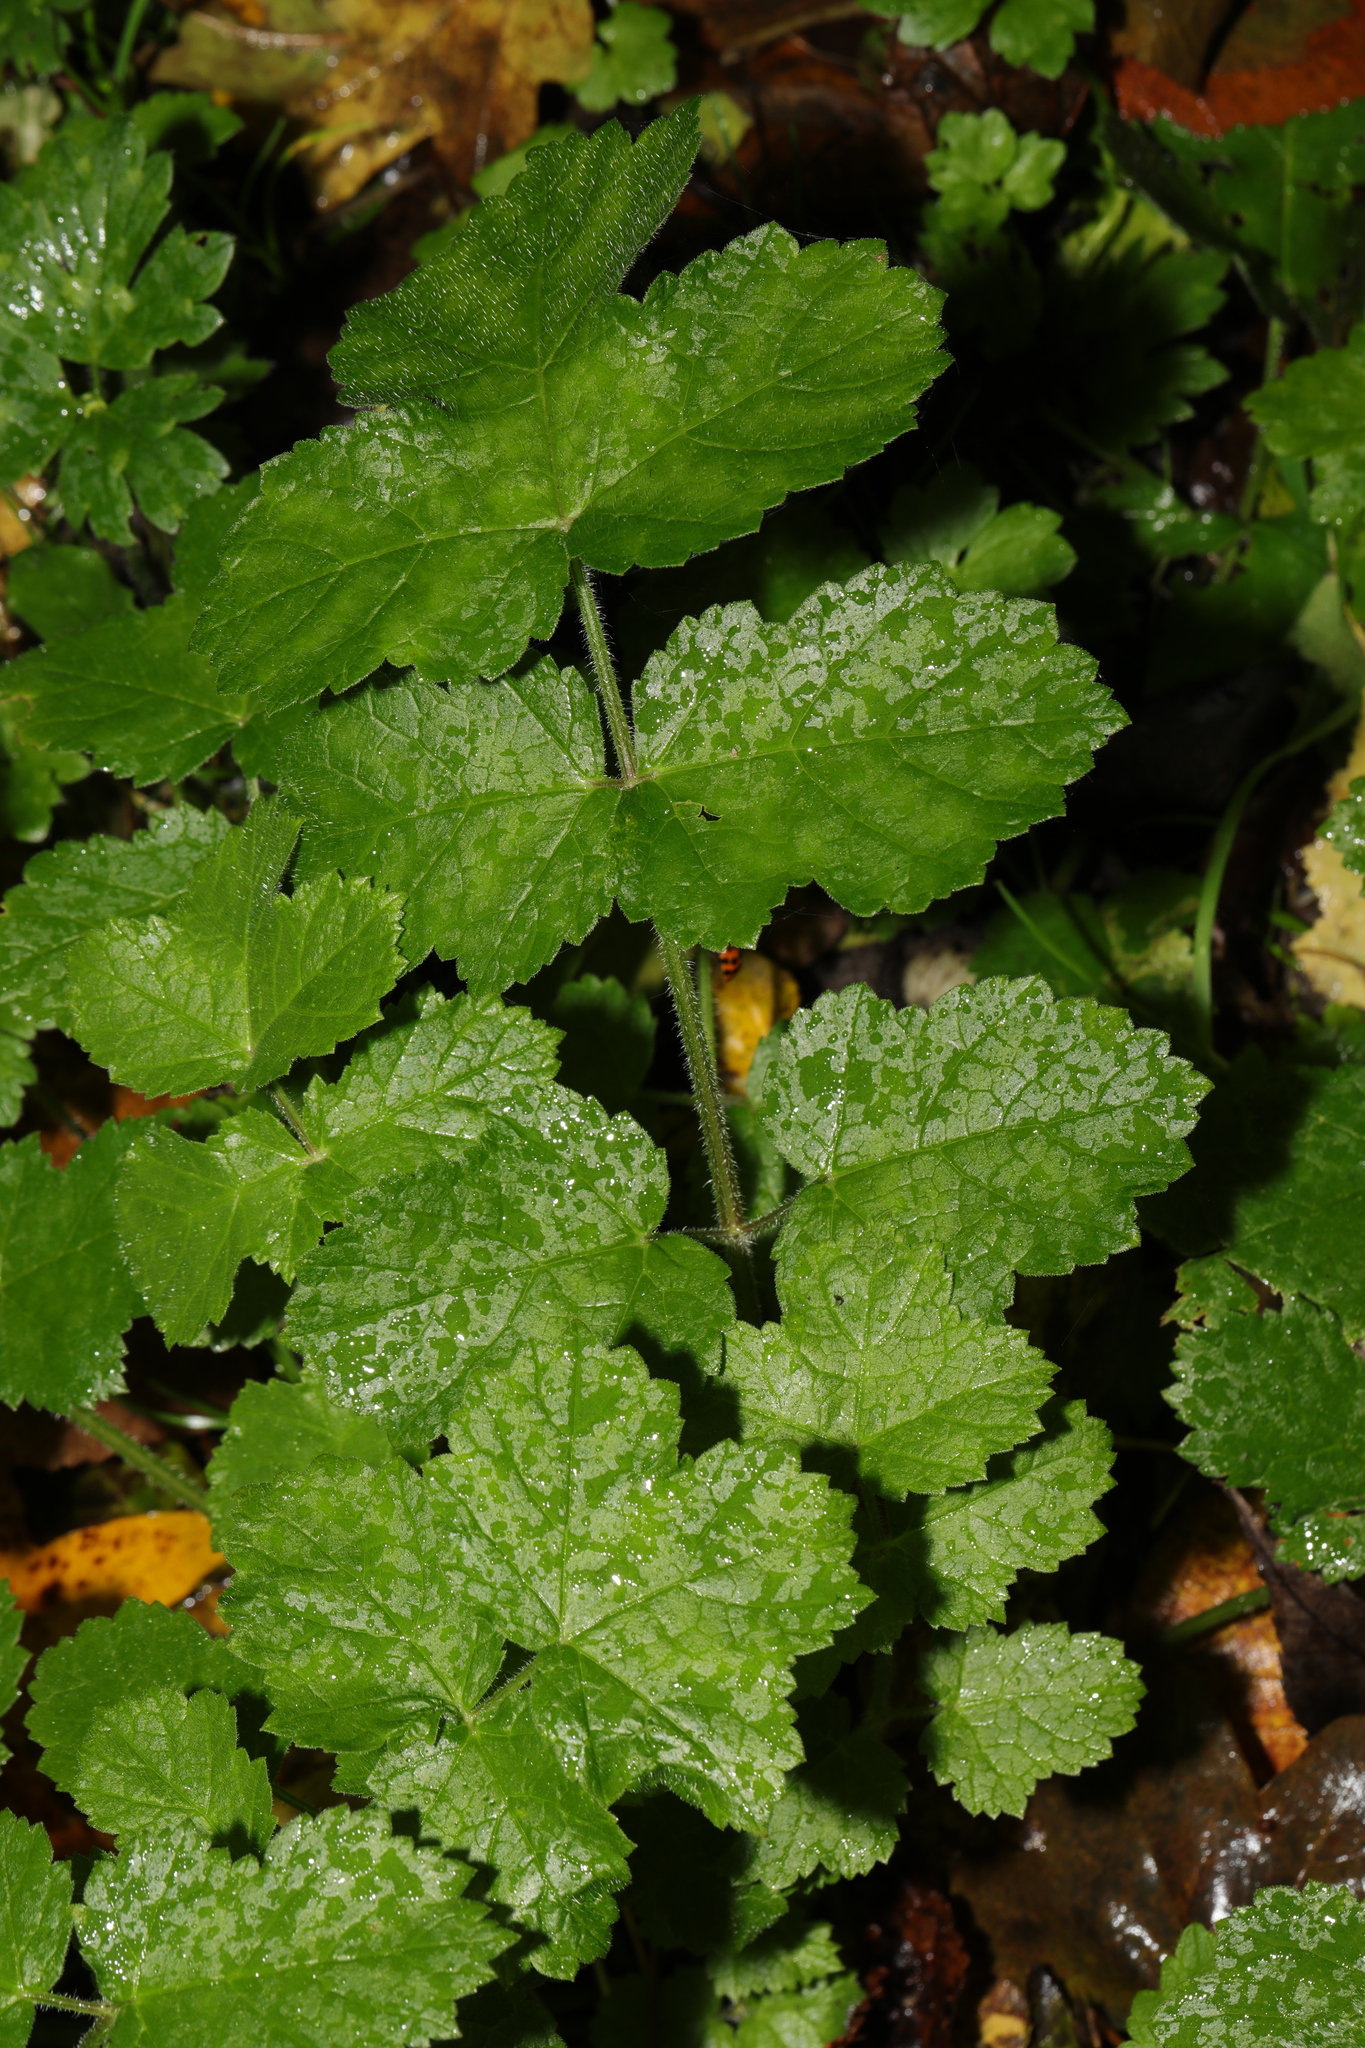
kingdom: Plantae
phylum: Tracheophyta
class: Magnoliopsida
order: Apiales
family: Apiaceae
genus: Heracleum
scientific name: Heracleum sphondylium
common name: Hogweed
